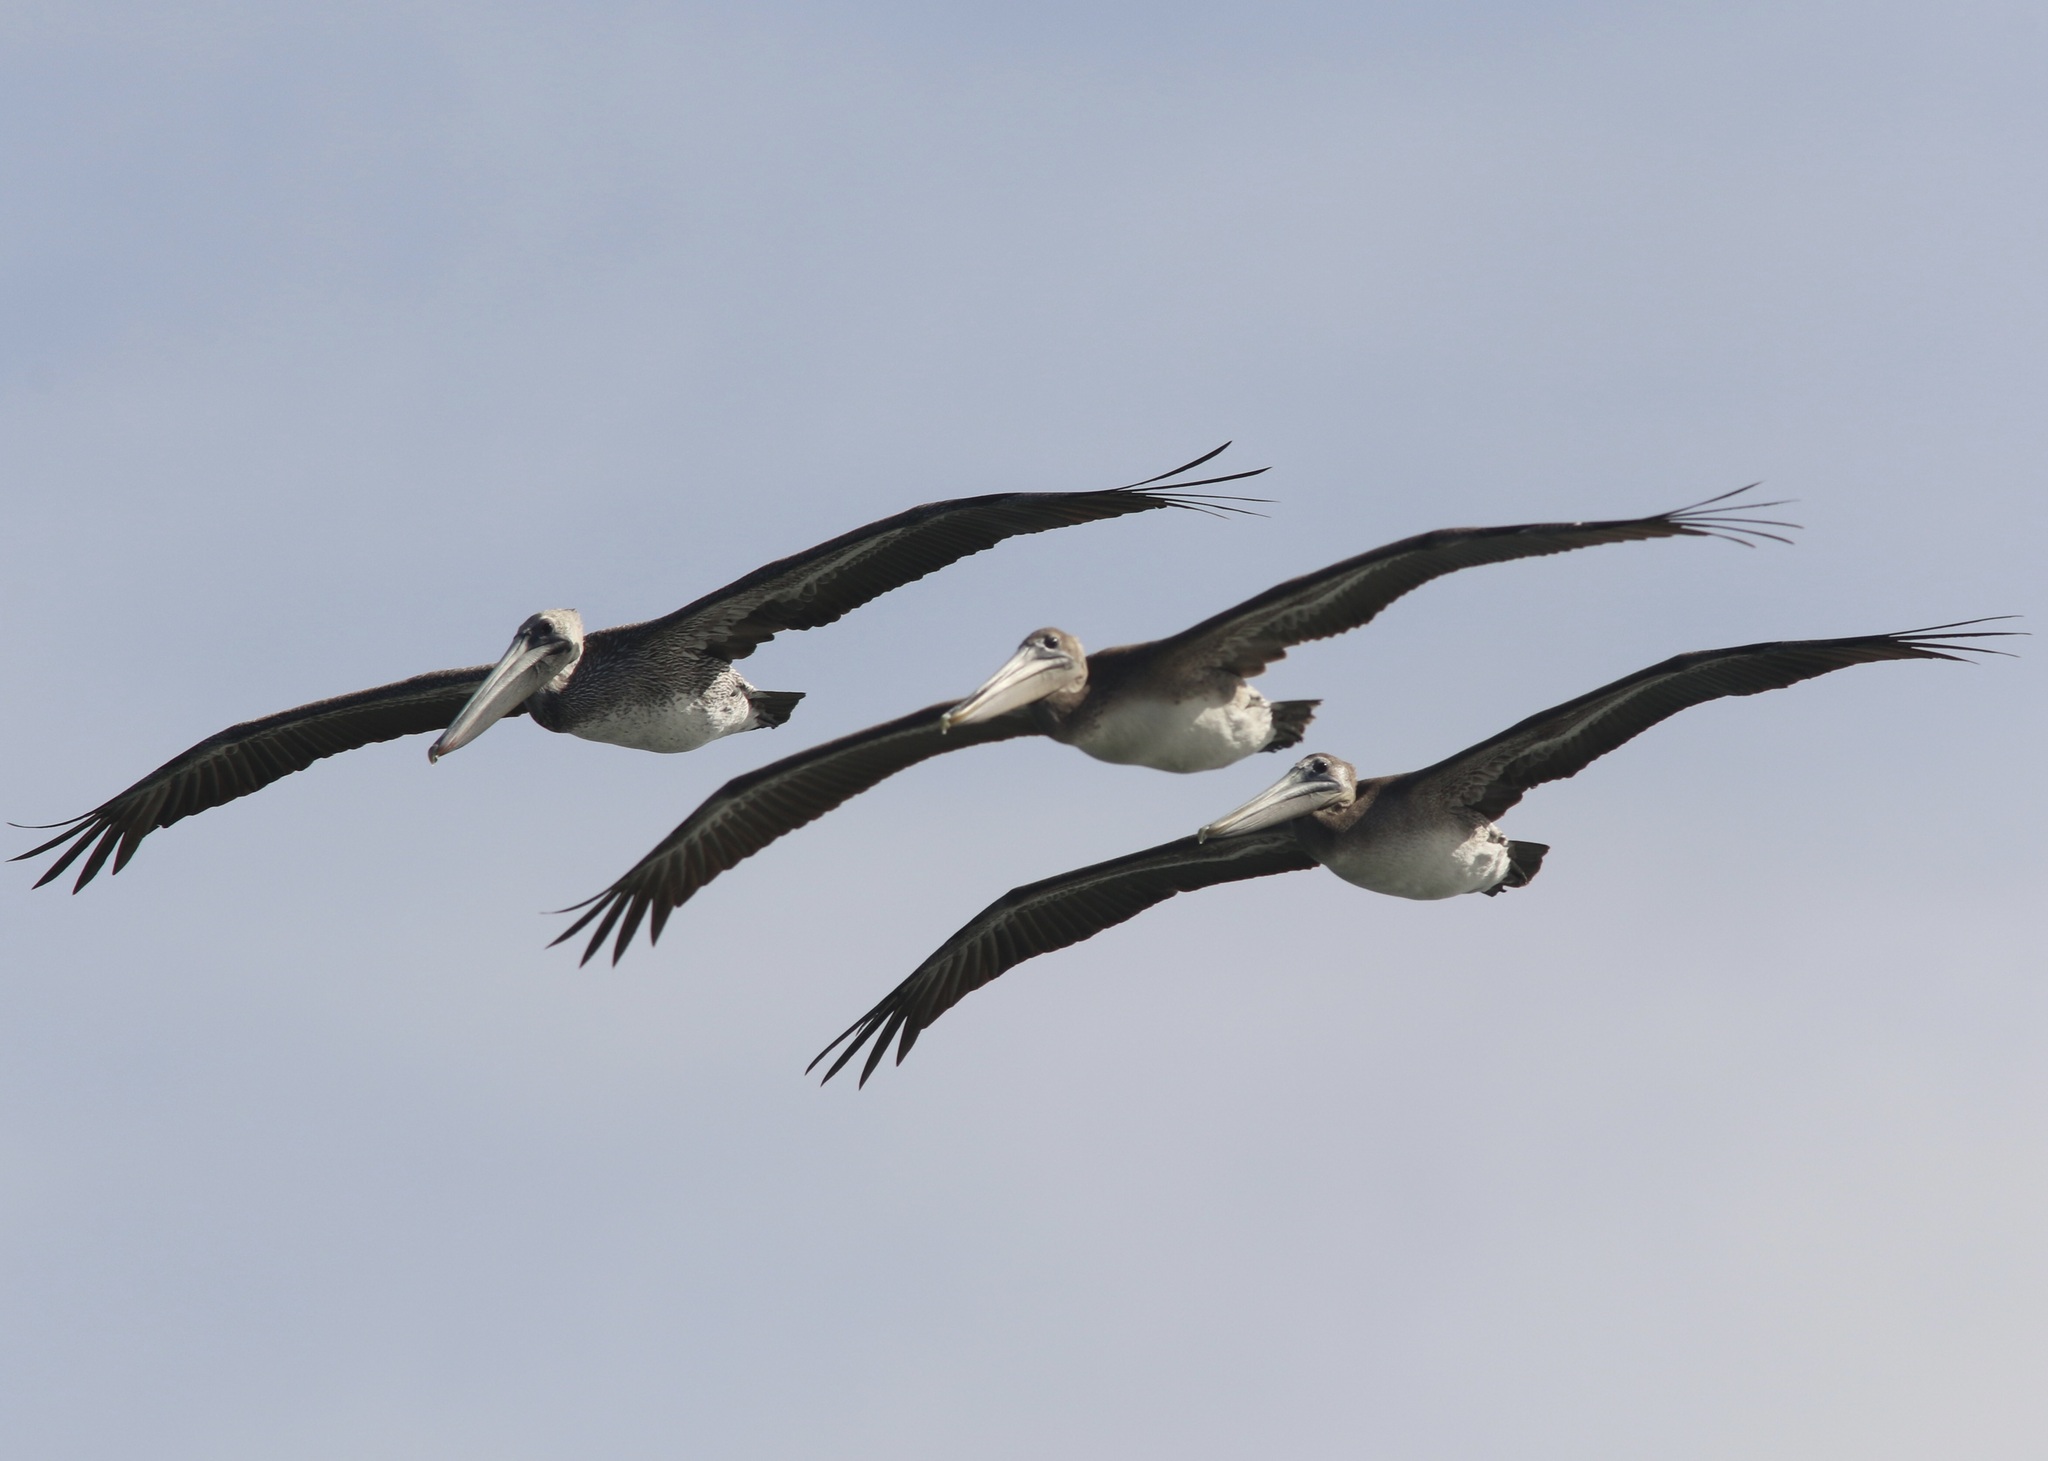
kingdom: Animalia
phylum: Chordata
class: Aves
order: Pelecaniformes
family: Pelecanidae
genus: Pelecanus
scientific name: Pelecanus occidentalis
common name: Brown pelican
